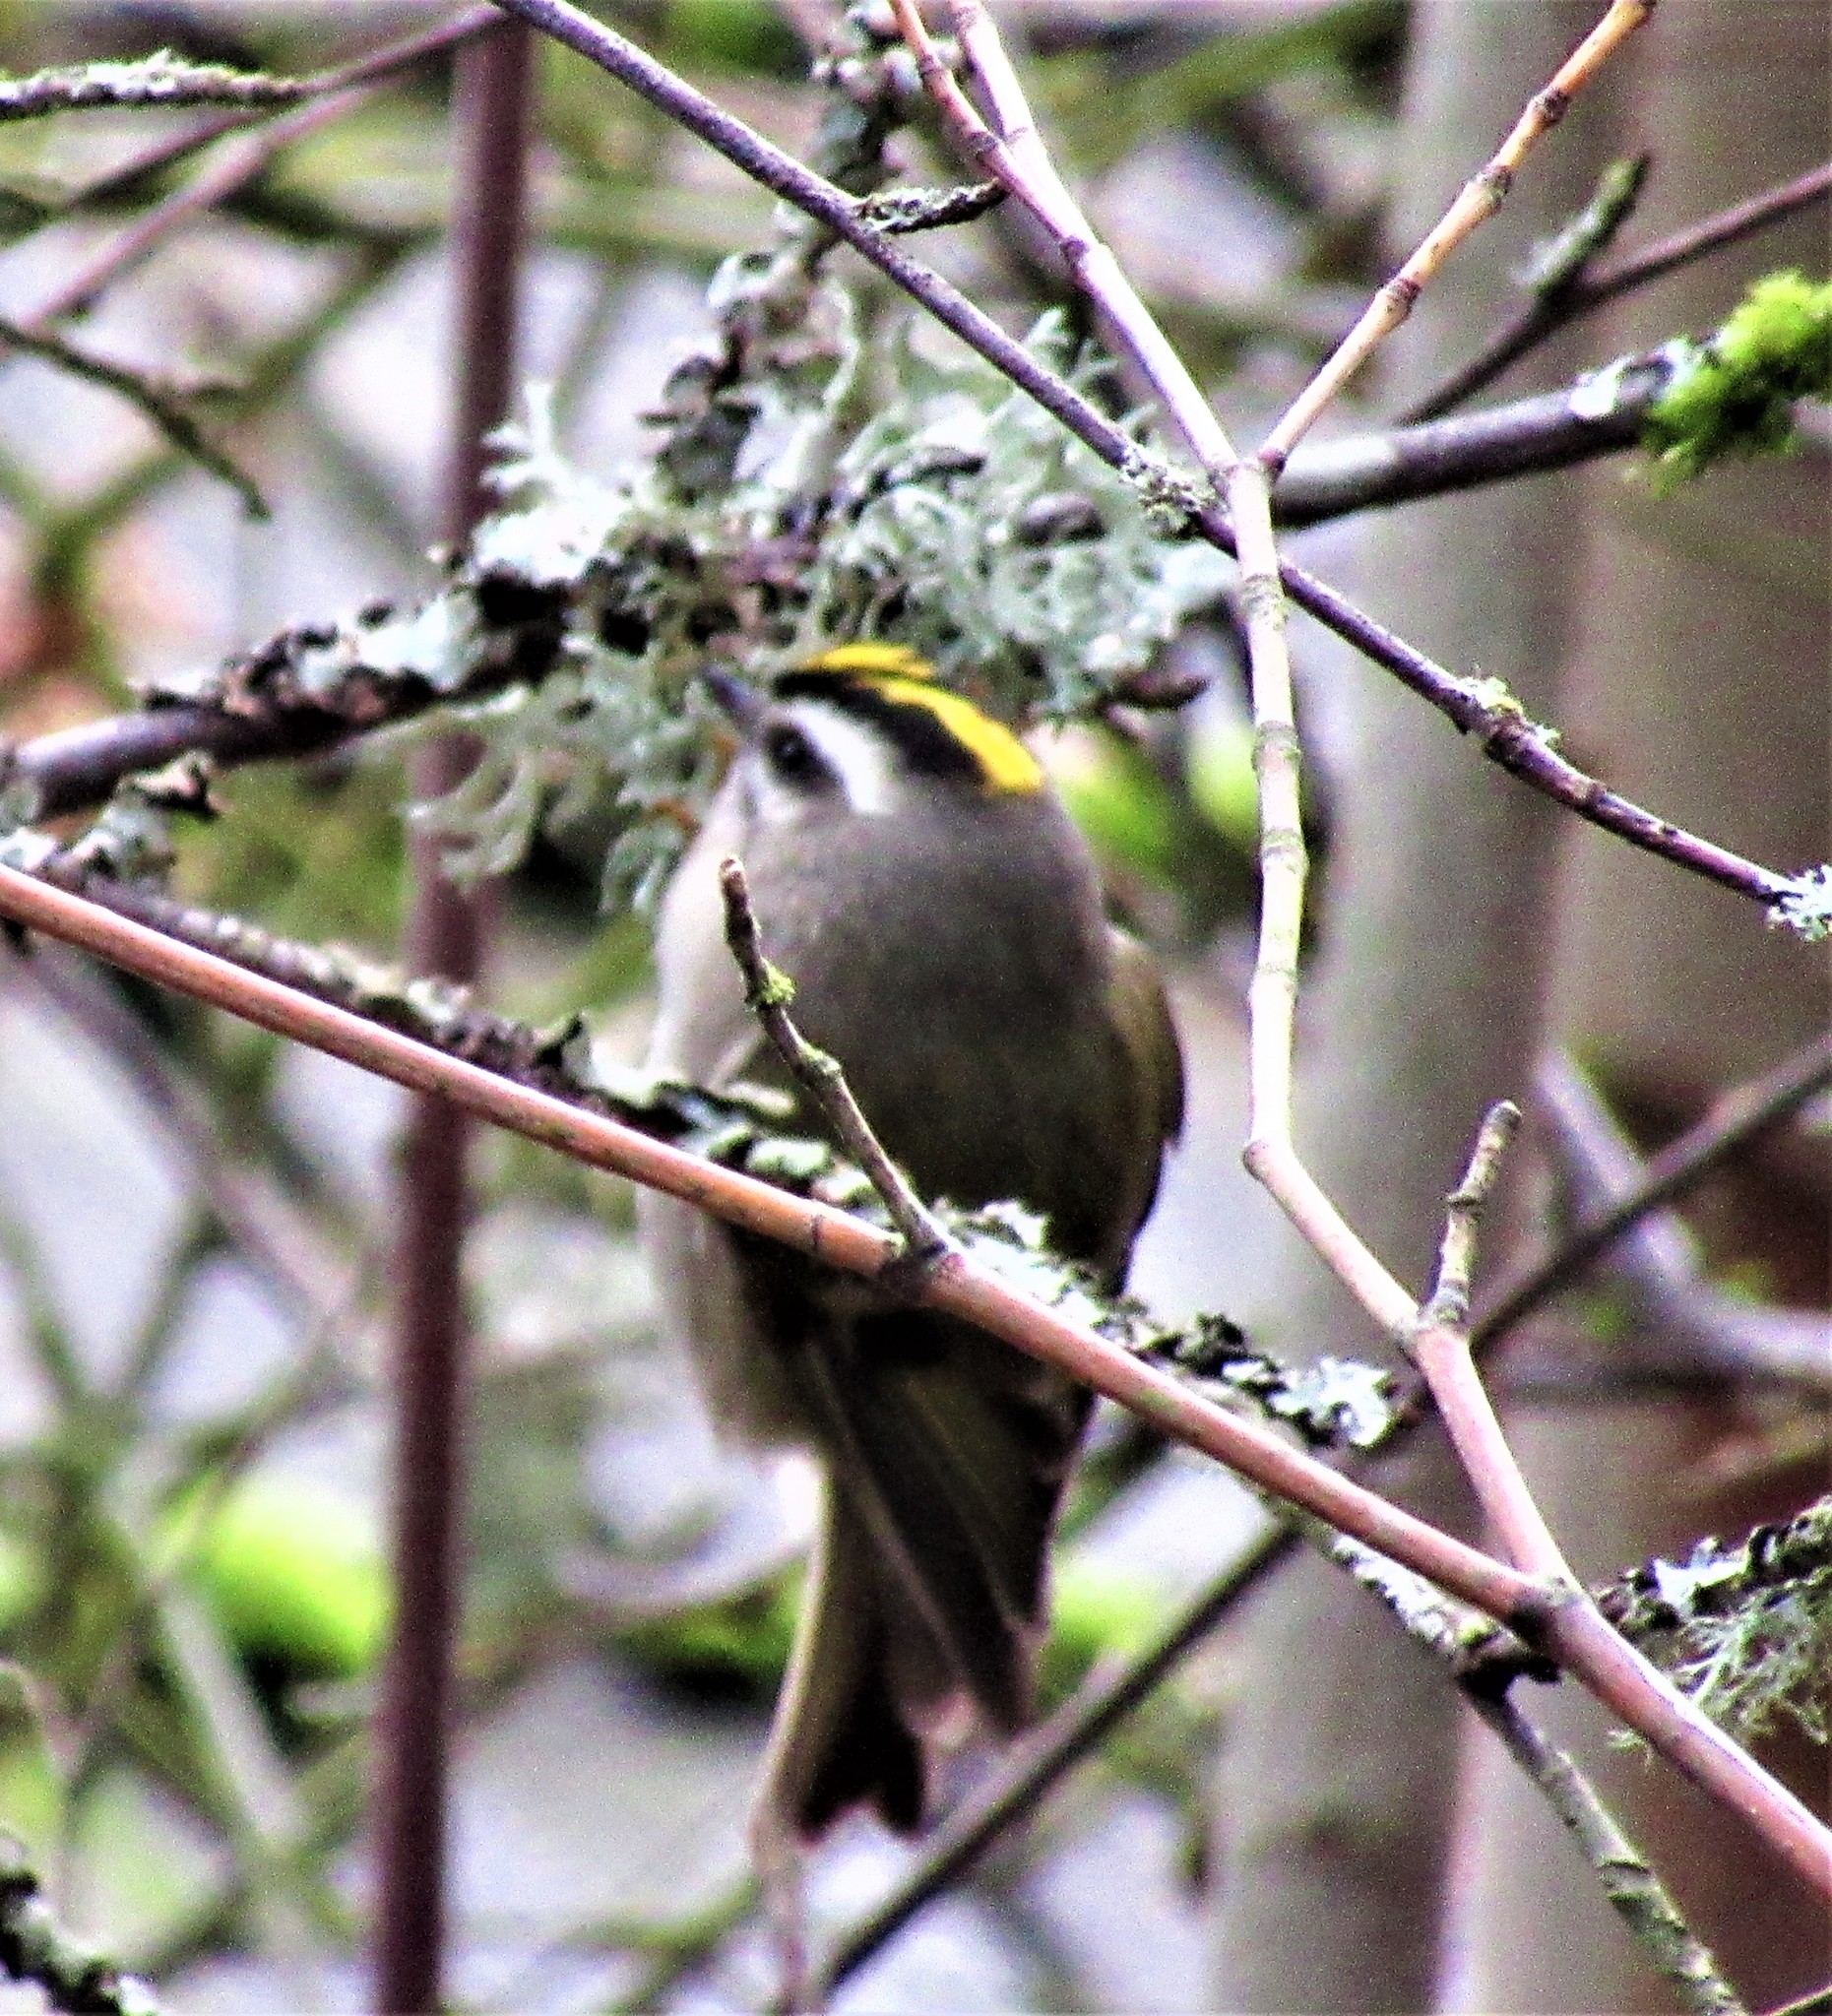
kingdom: Animalia
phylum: Chordata
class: Aves
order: Passeriformes
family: Regulidae
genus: Regulus
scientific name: Regulus satrapa
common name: Golden-crowned kinglet
